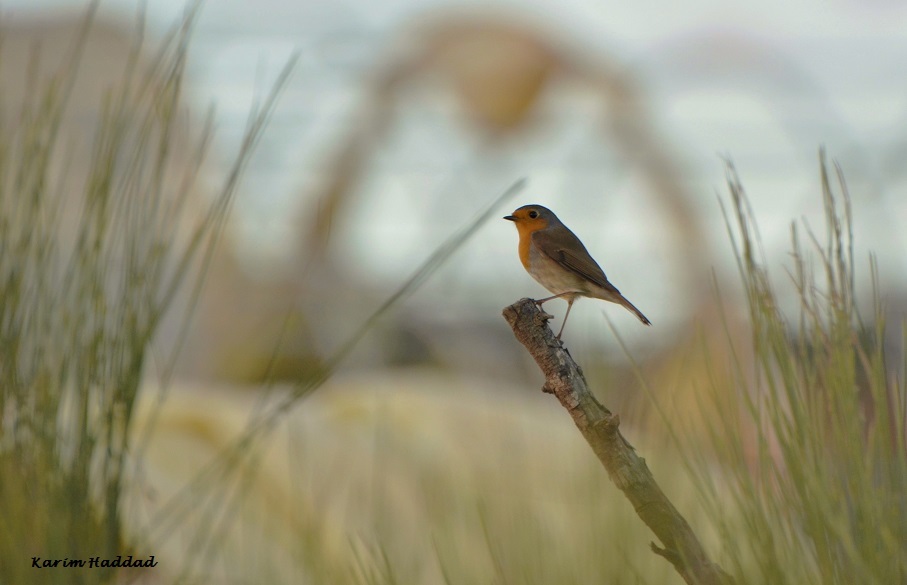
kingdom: Animalia
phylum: Chordata
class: Aves
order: Passeriformes
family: Muscicapidae
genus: Erithacus
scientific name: Erithacus rubecula
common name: European robin
